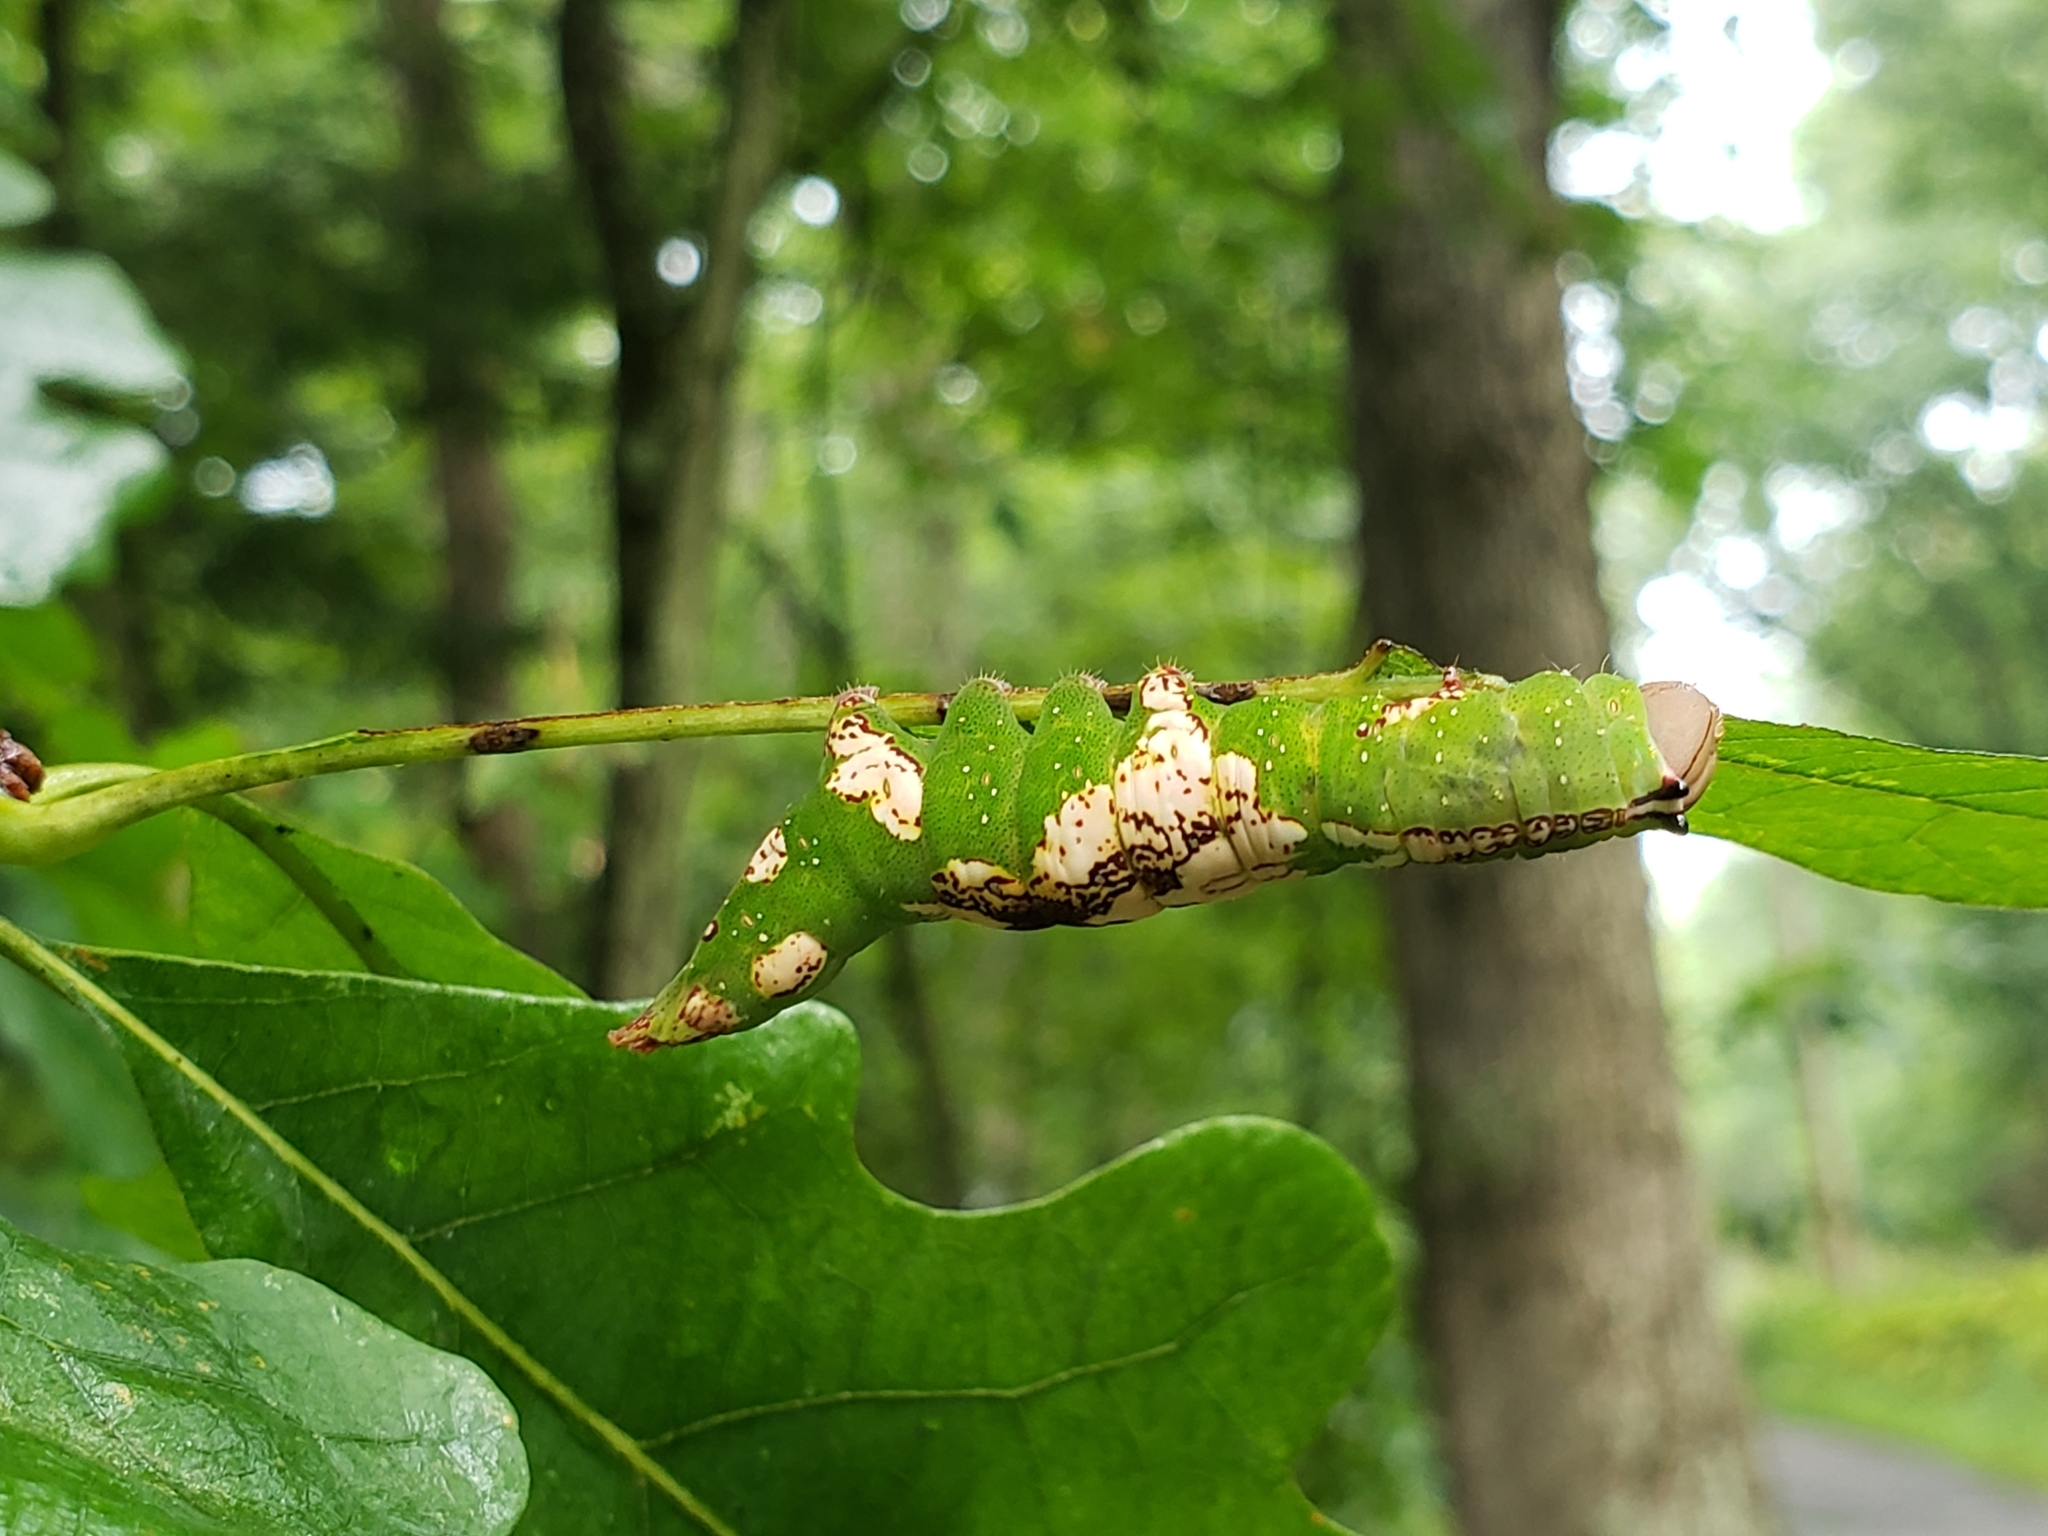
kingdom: Animalia
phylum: Arthropoda
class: Insecta
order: Lepidoptera
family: Notodontidae
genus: Heterocampa
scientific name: Heterocampa
